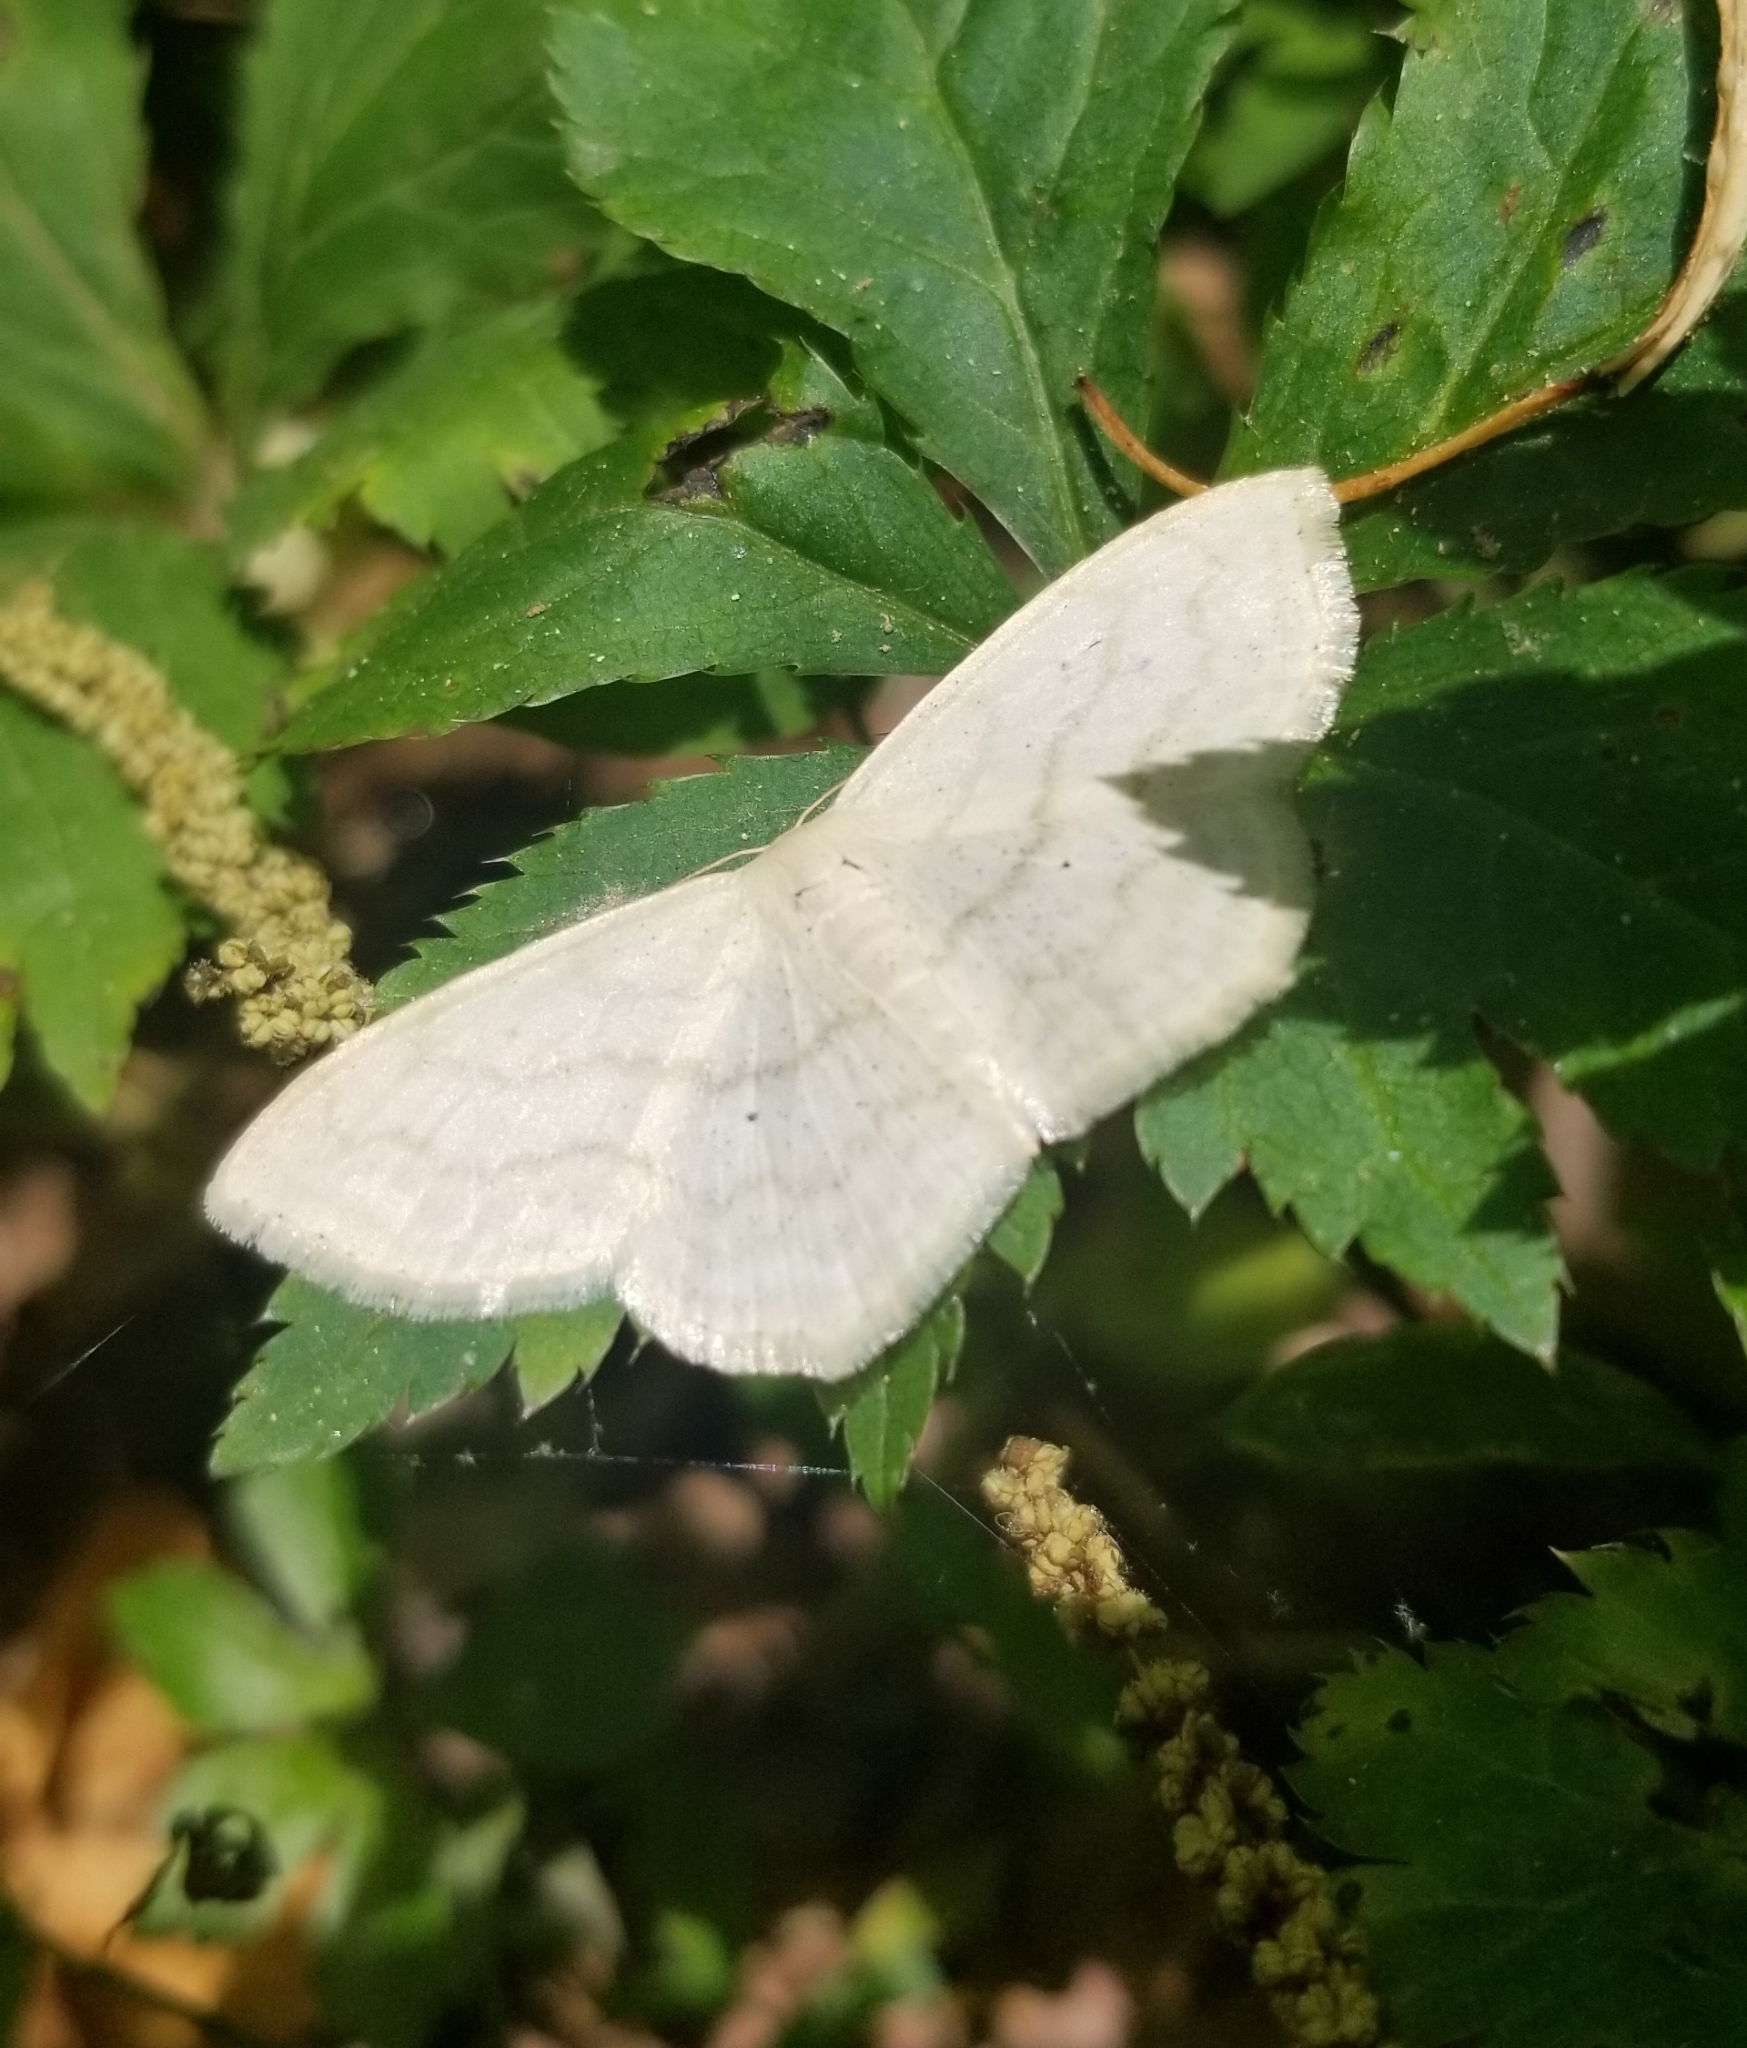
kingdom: Animalia
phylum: Arthropoda
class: Insecta
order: Lepidoptera
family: Geometridae
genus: Scopula
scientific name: Scopula limboundata
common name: Large lace border
